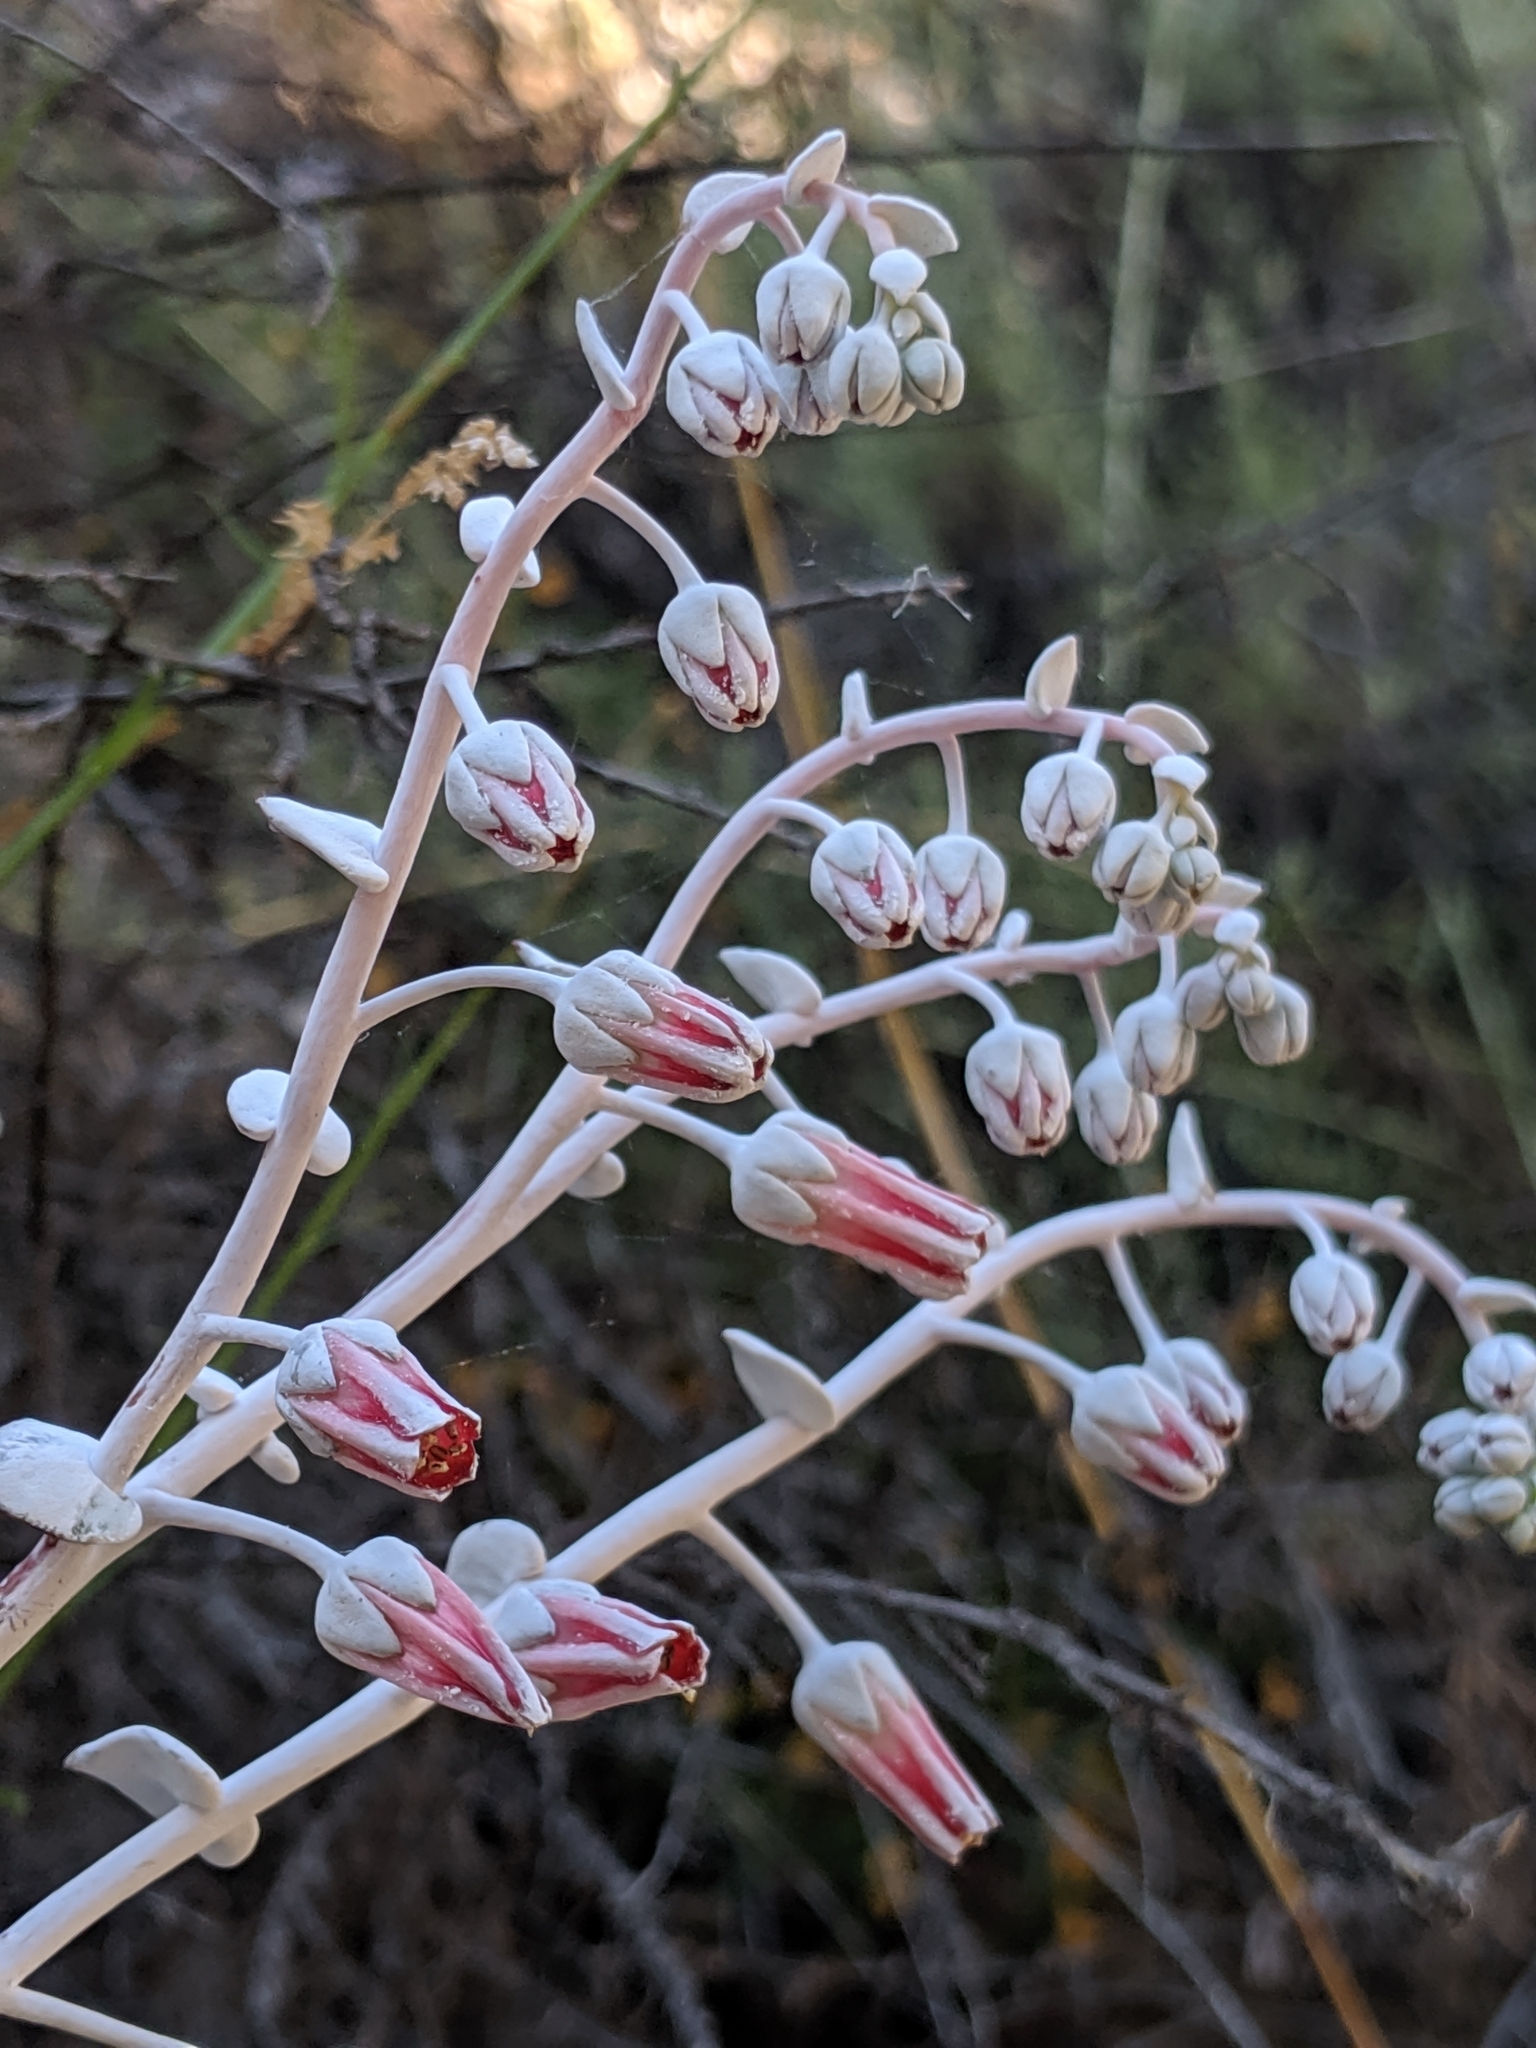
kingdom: Plantae
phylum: Tracheophyta
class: Magnoliopsida
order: Saxifragales
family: Crassulaceae
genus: Dudleya
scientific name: Dudleya pulverulenta
